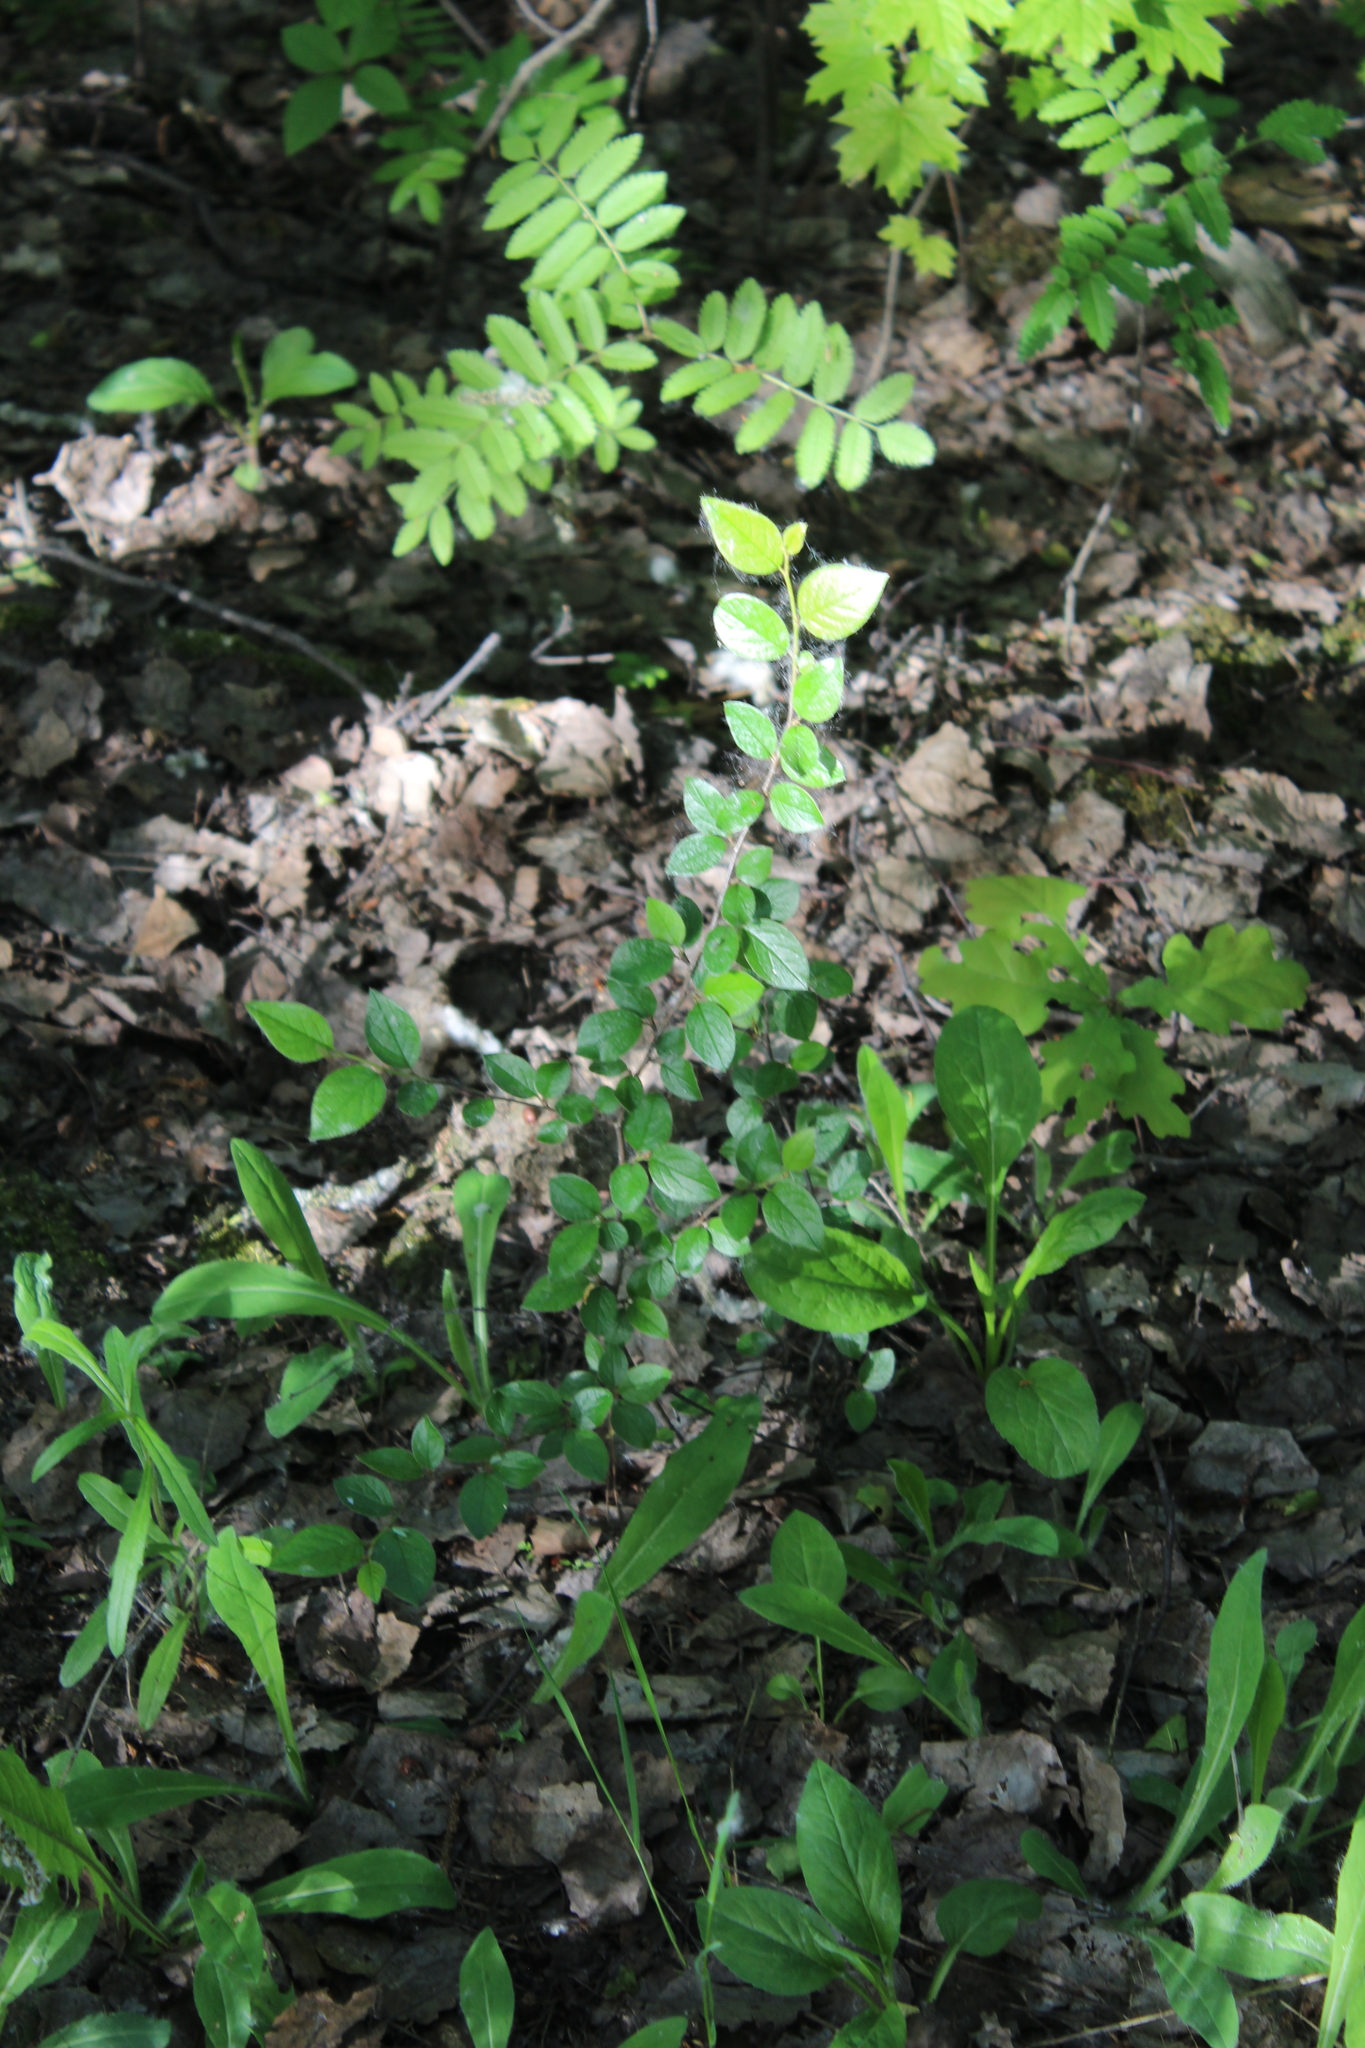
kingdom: Plantae
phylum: Tracheophyta
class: Magnoliopsida
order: Rosales
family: Rosaceae
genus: Cotoneaster
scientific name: Cotoneaster acutifolius
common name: Peking cotoneaster
